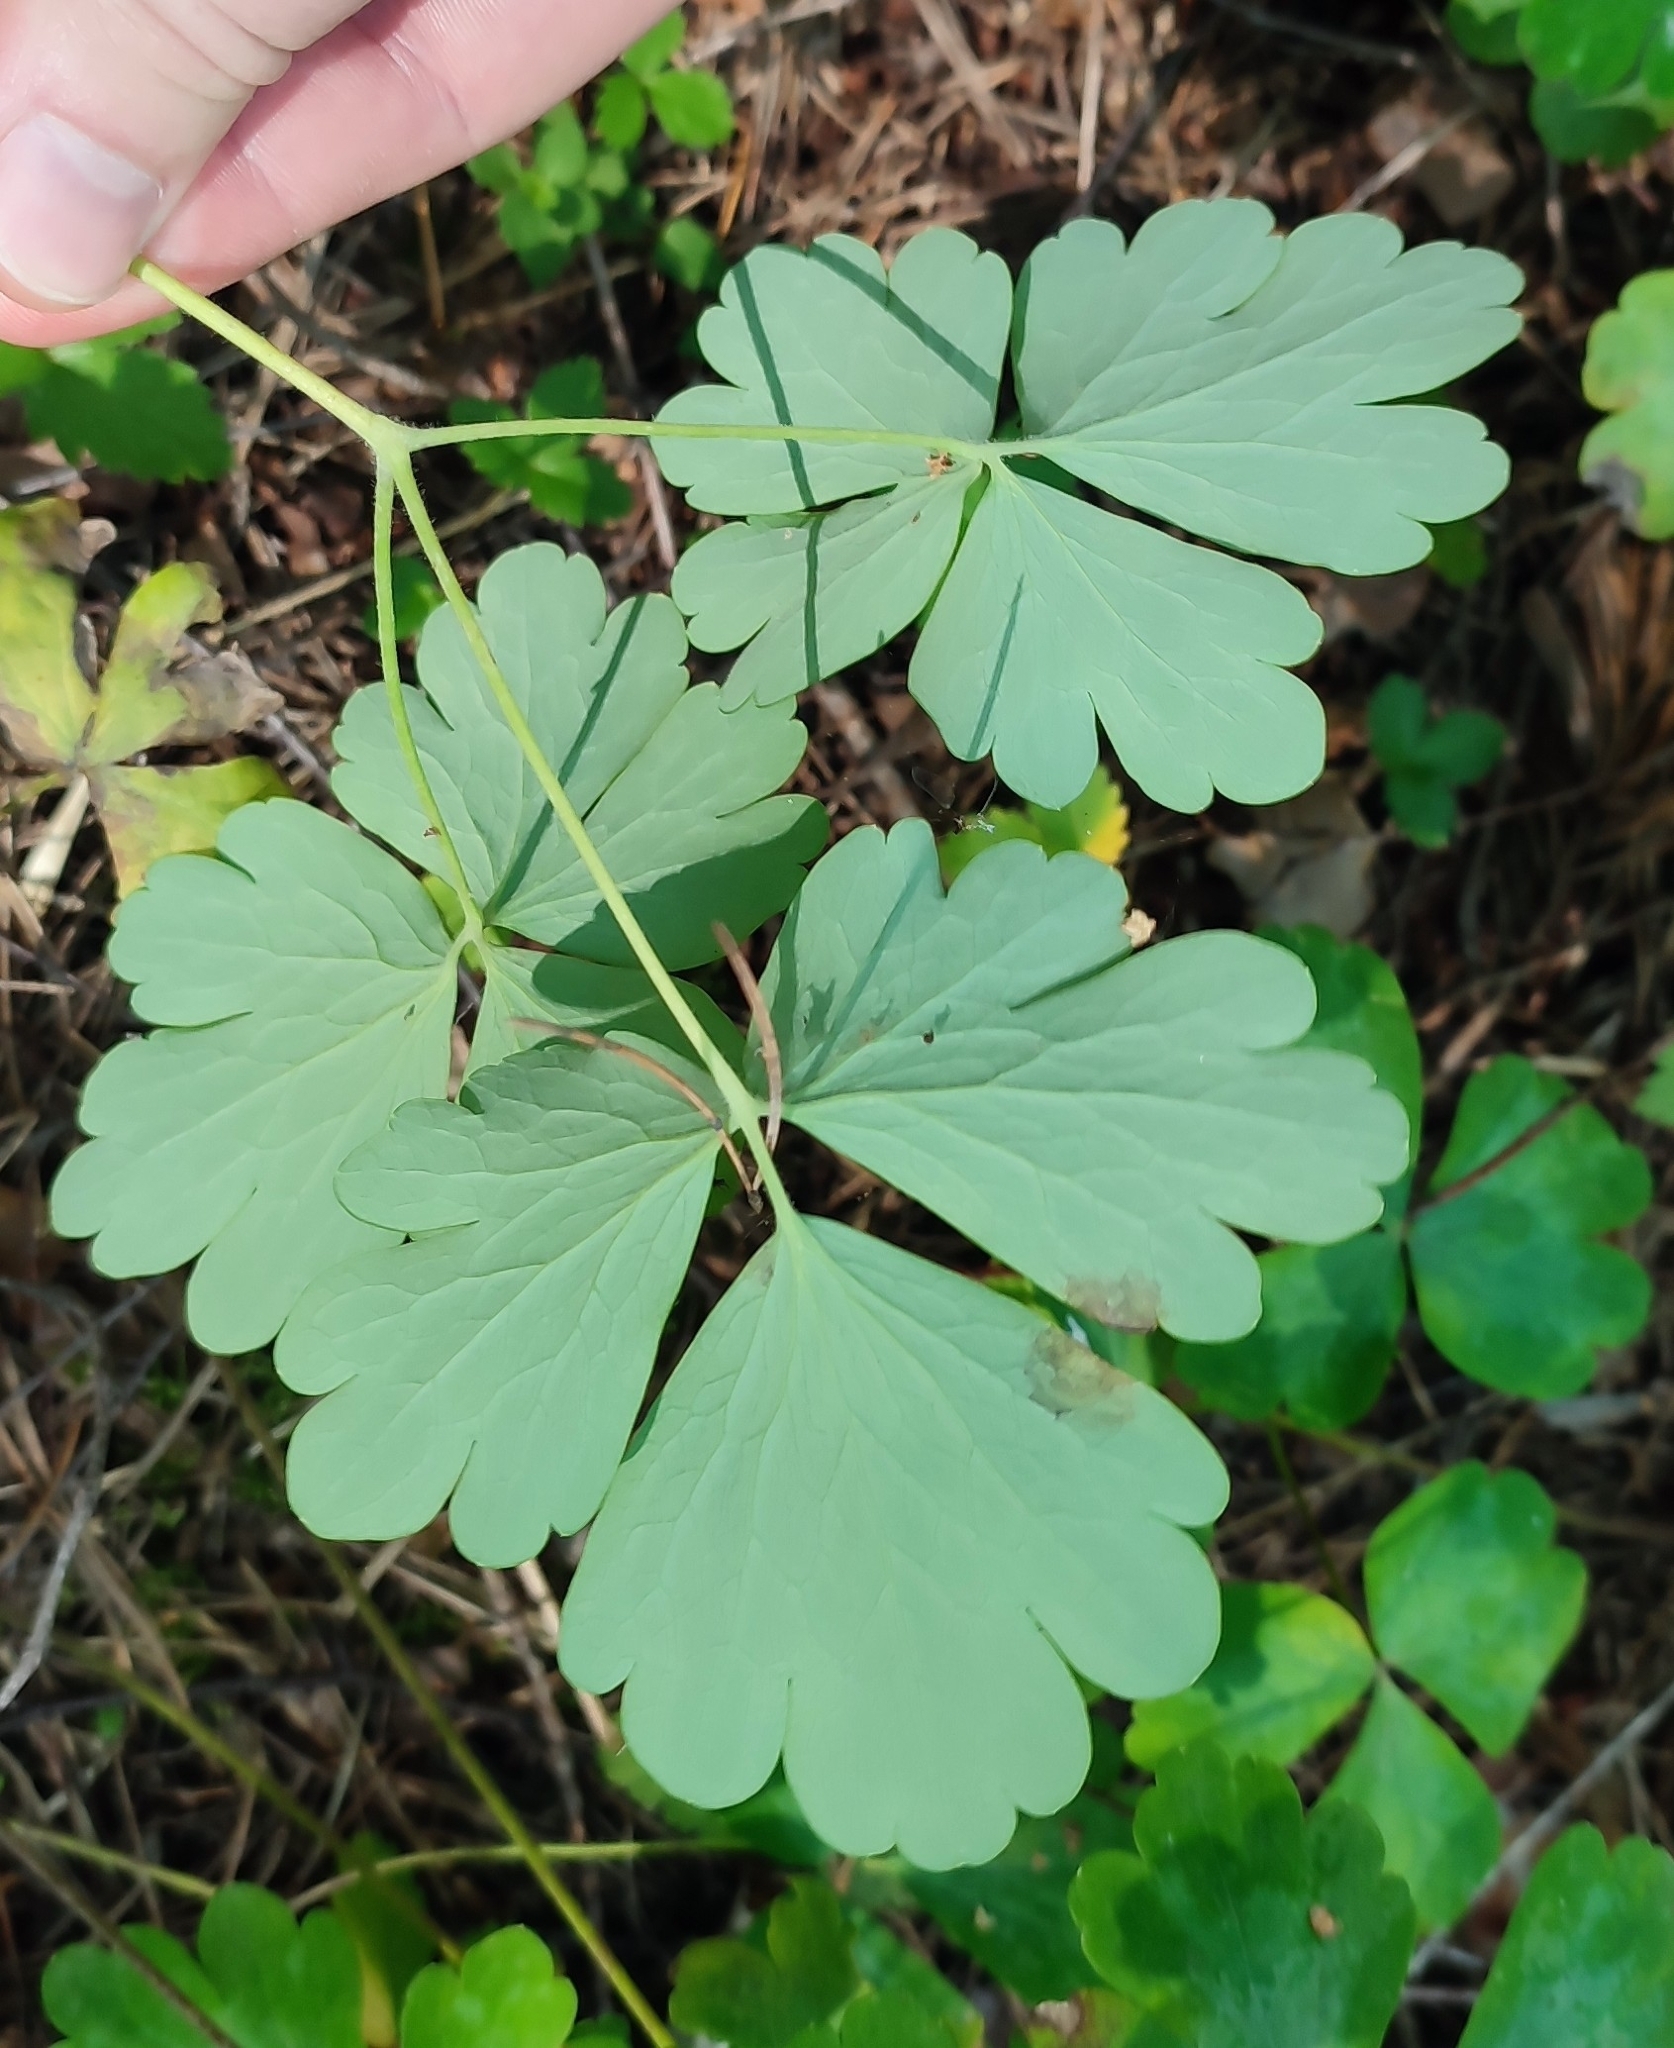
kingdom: Plantae
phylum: Tracheophyta
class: Magnoliopsida
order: Ranunculales
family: Ranunculaceae
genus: Aquilegia
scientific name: Aquilegia vulgaris
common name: Columbine
